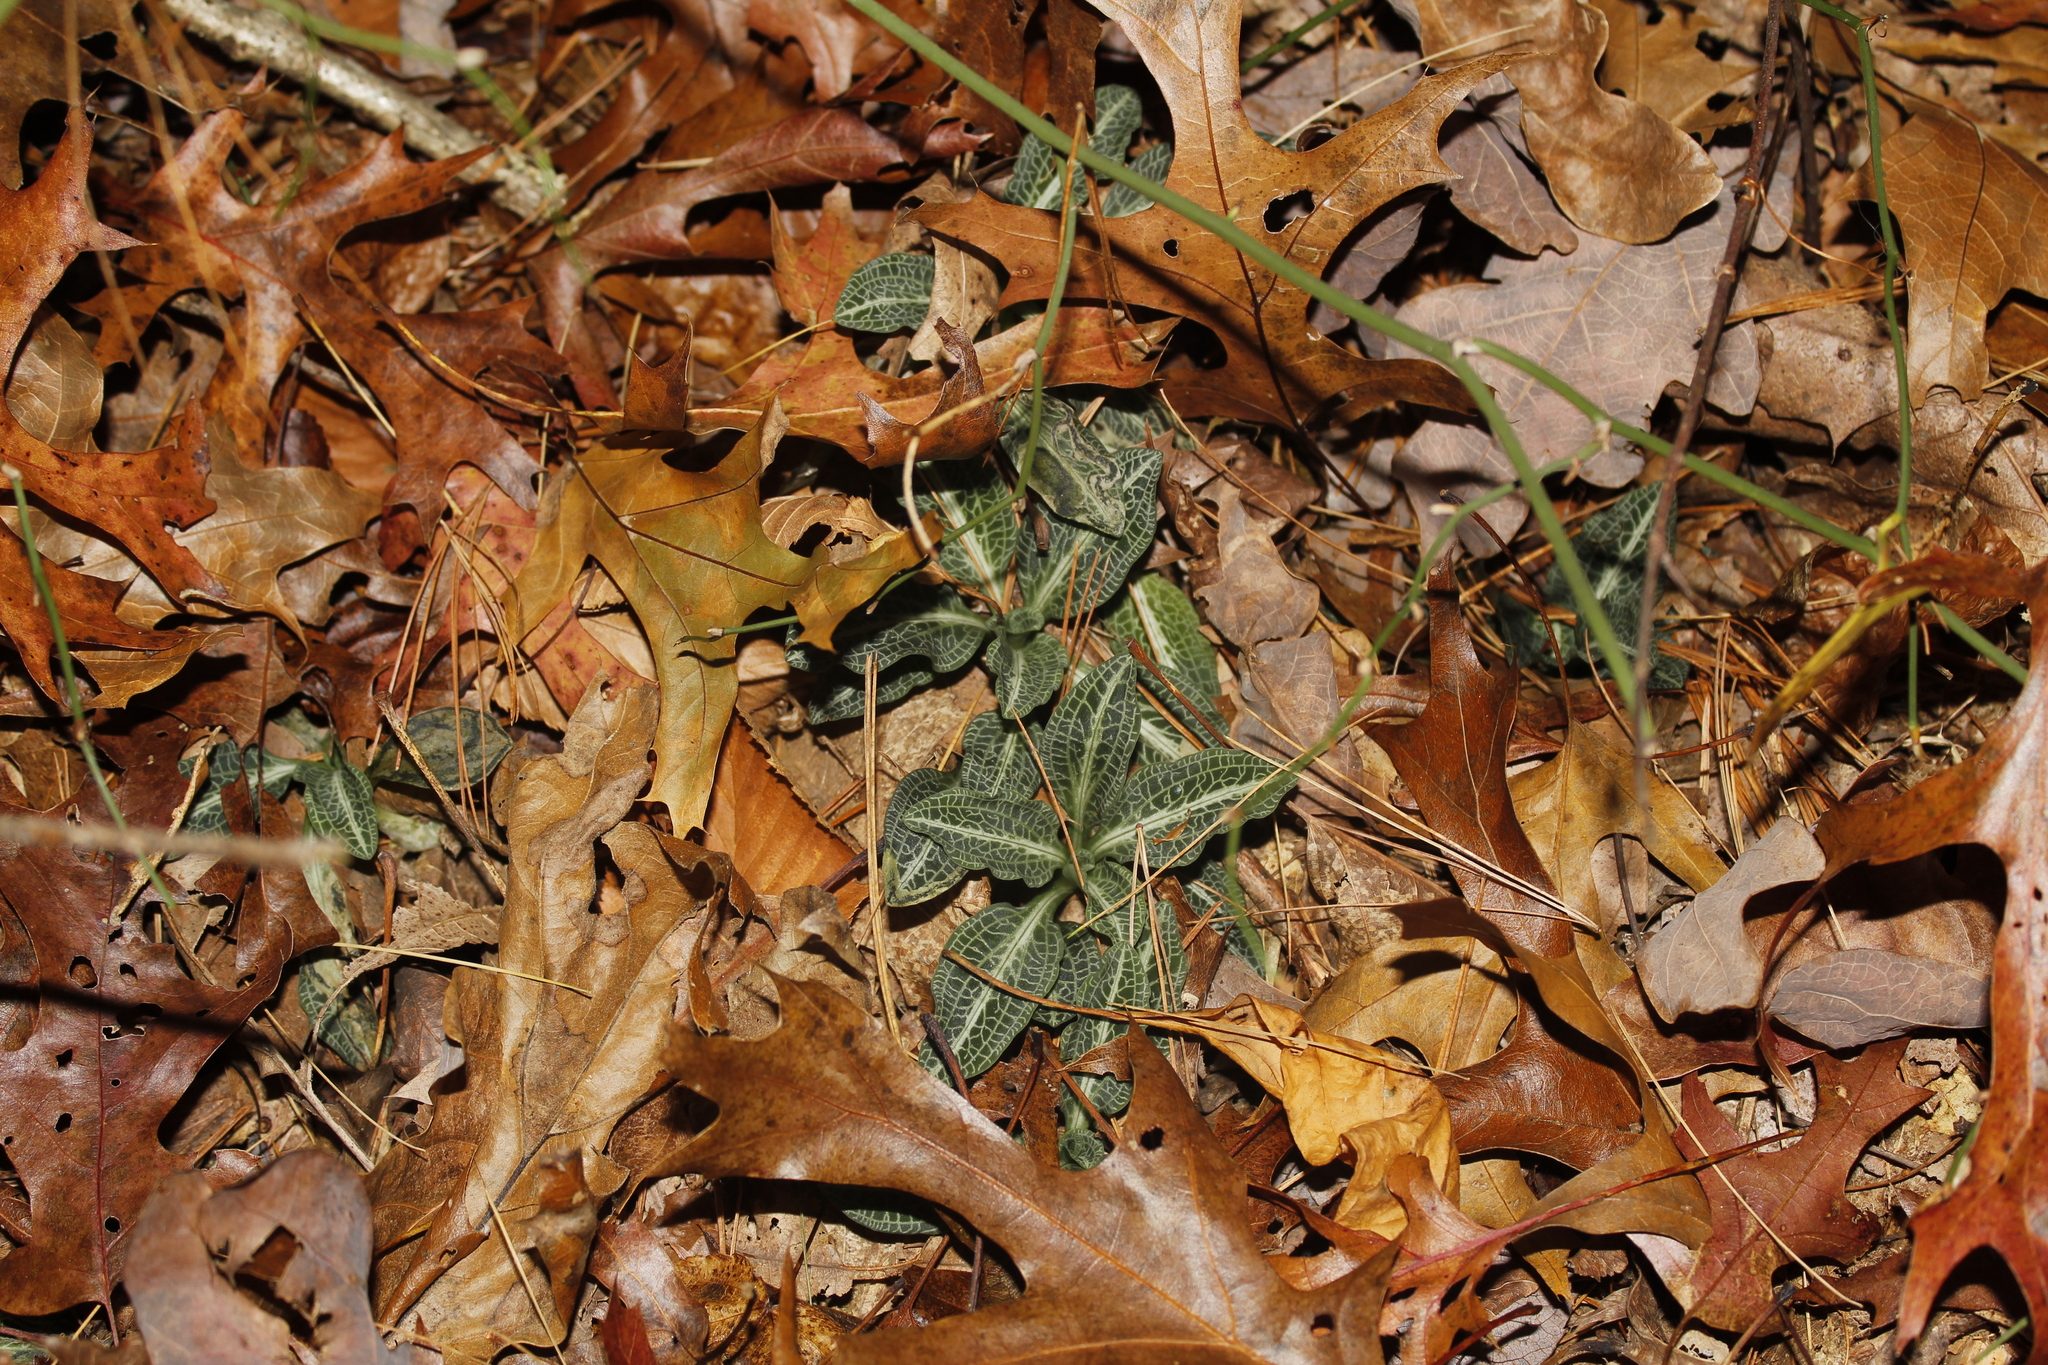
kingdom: Plantae
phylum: Tracheophyta
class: Liliopsida
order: Asparagales
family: Orchidaceae
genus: Goodyera
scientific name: Goodyera pubescens
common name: Downy rattlesnake-plantain
